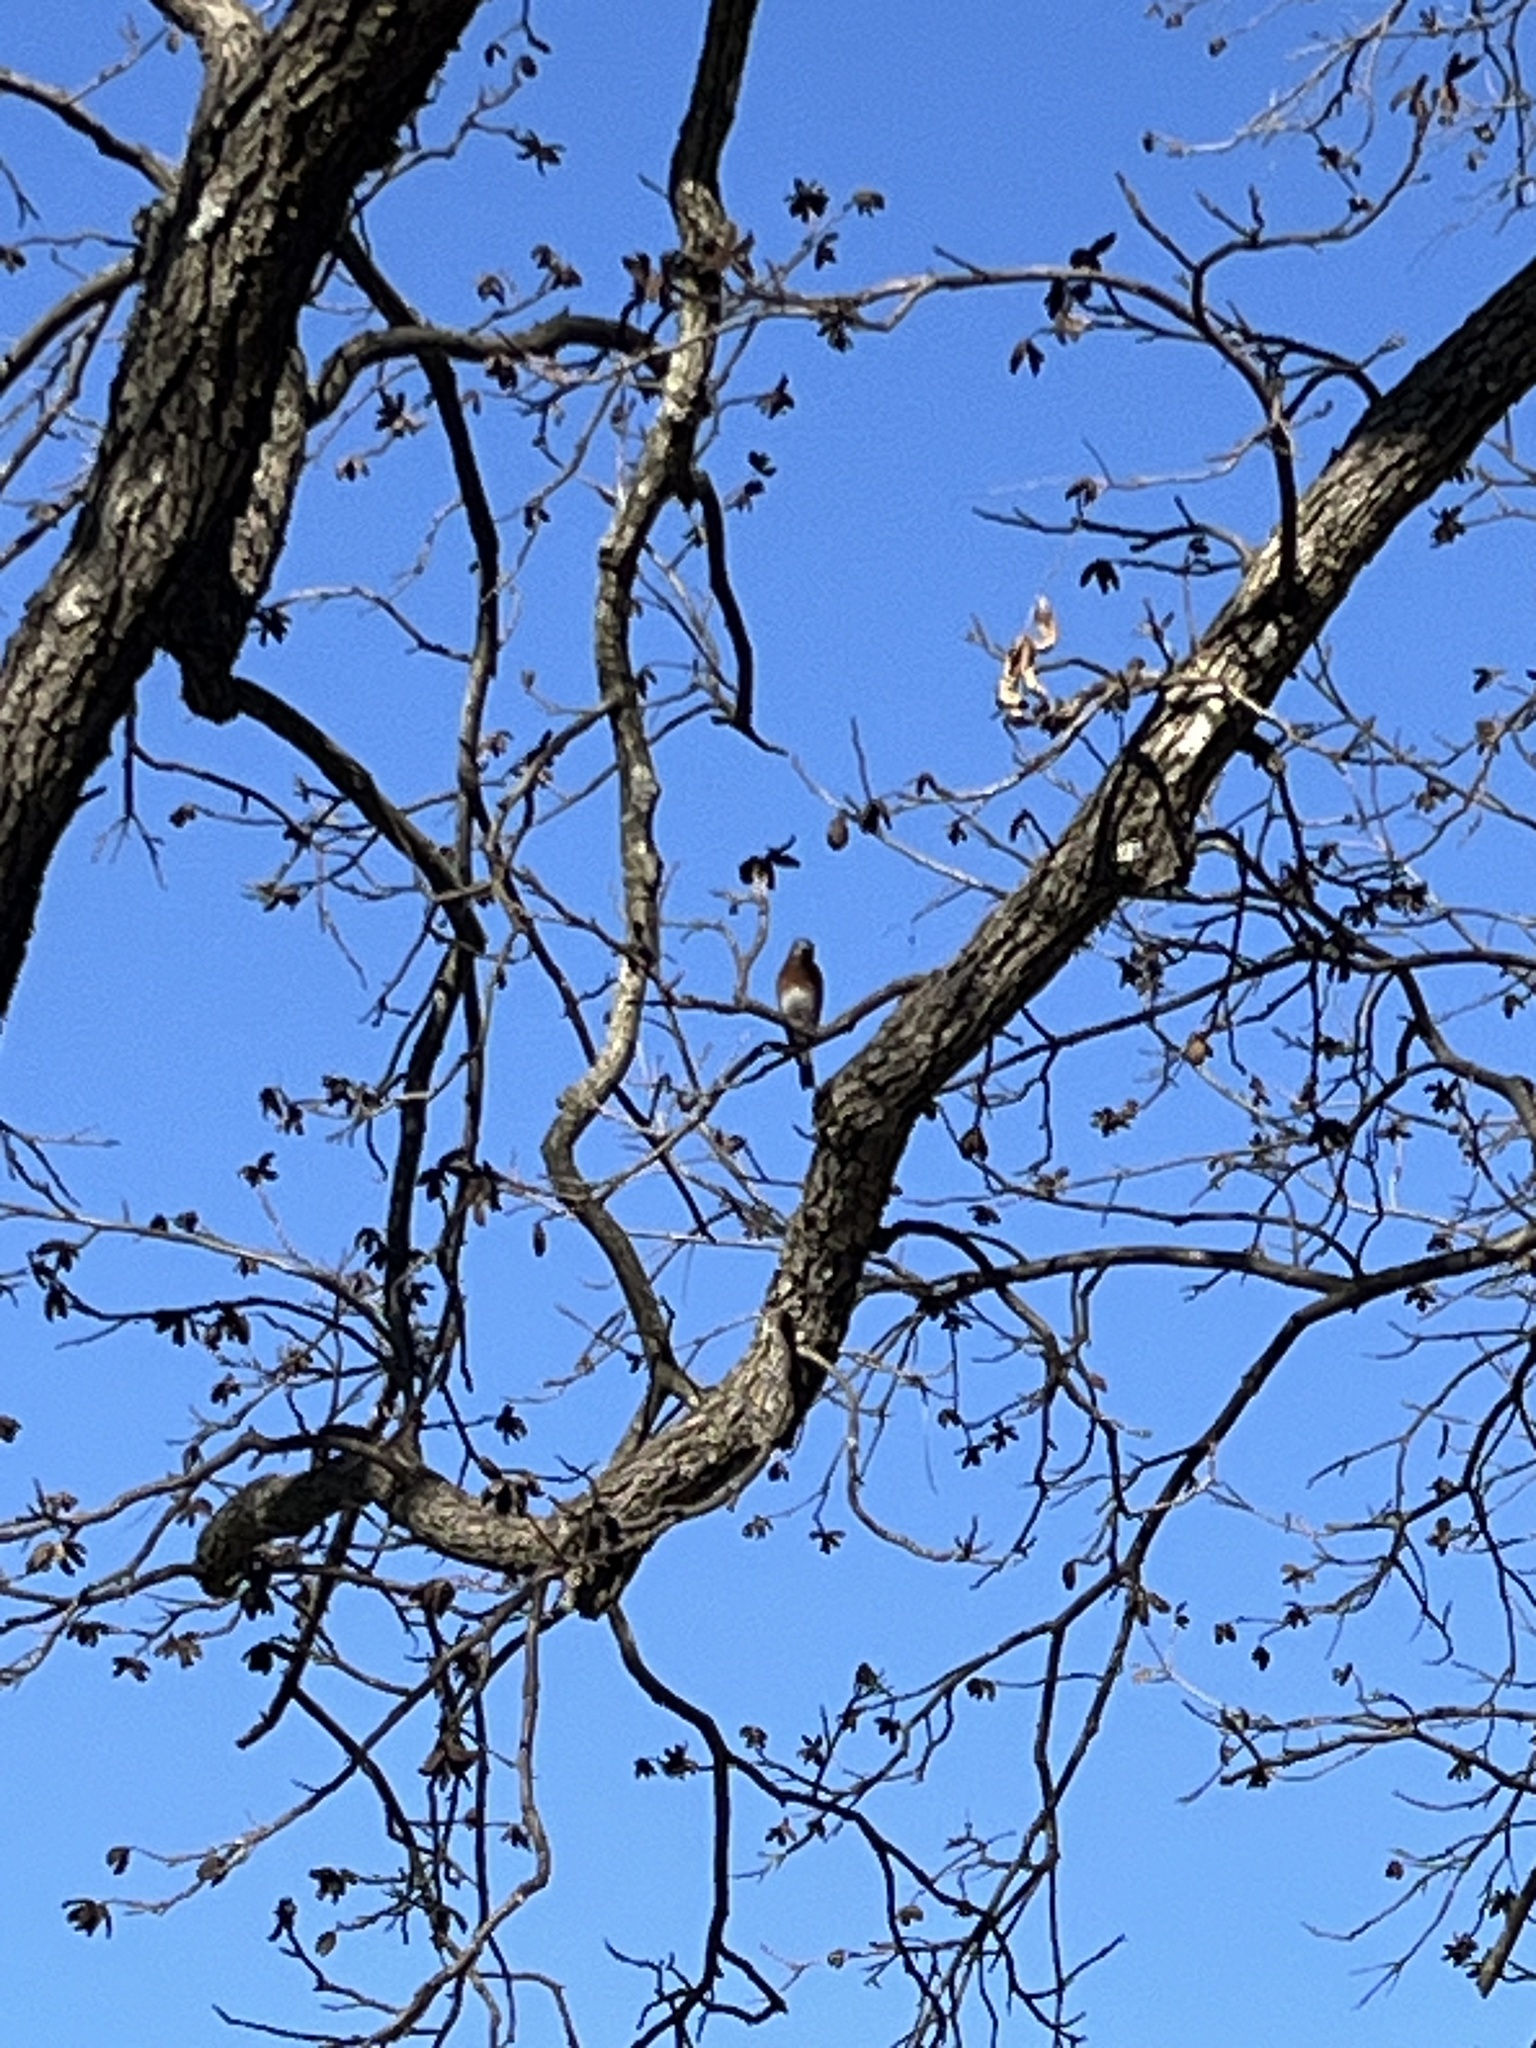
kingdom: Animalia
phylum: Chordata
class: Aves
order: Passeriformes
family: Turdidae
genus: Sialia
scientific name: Sialia sialis
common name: Eastern bluebird
